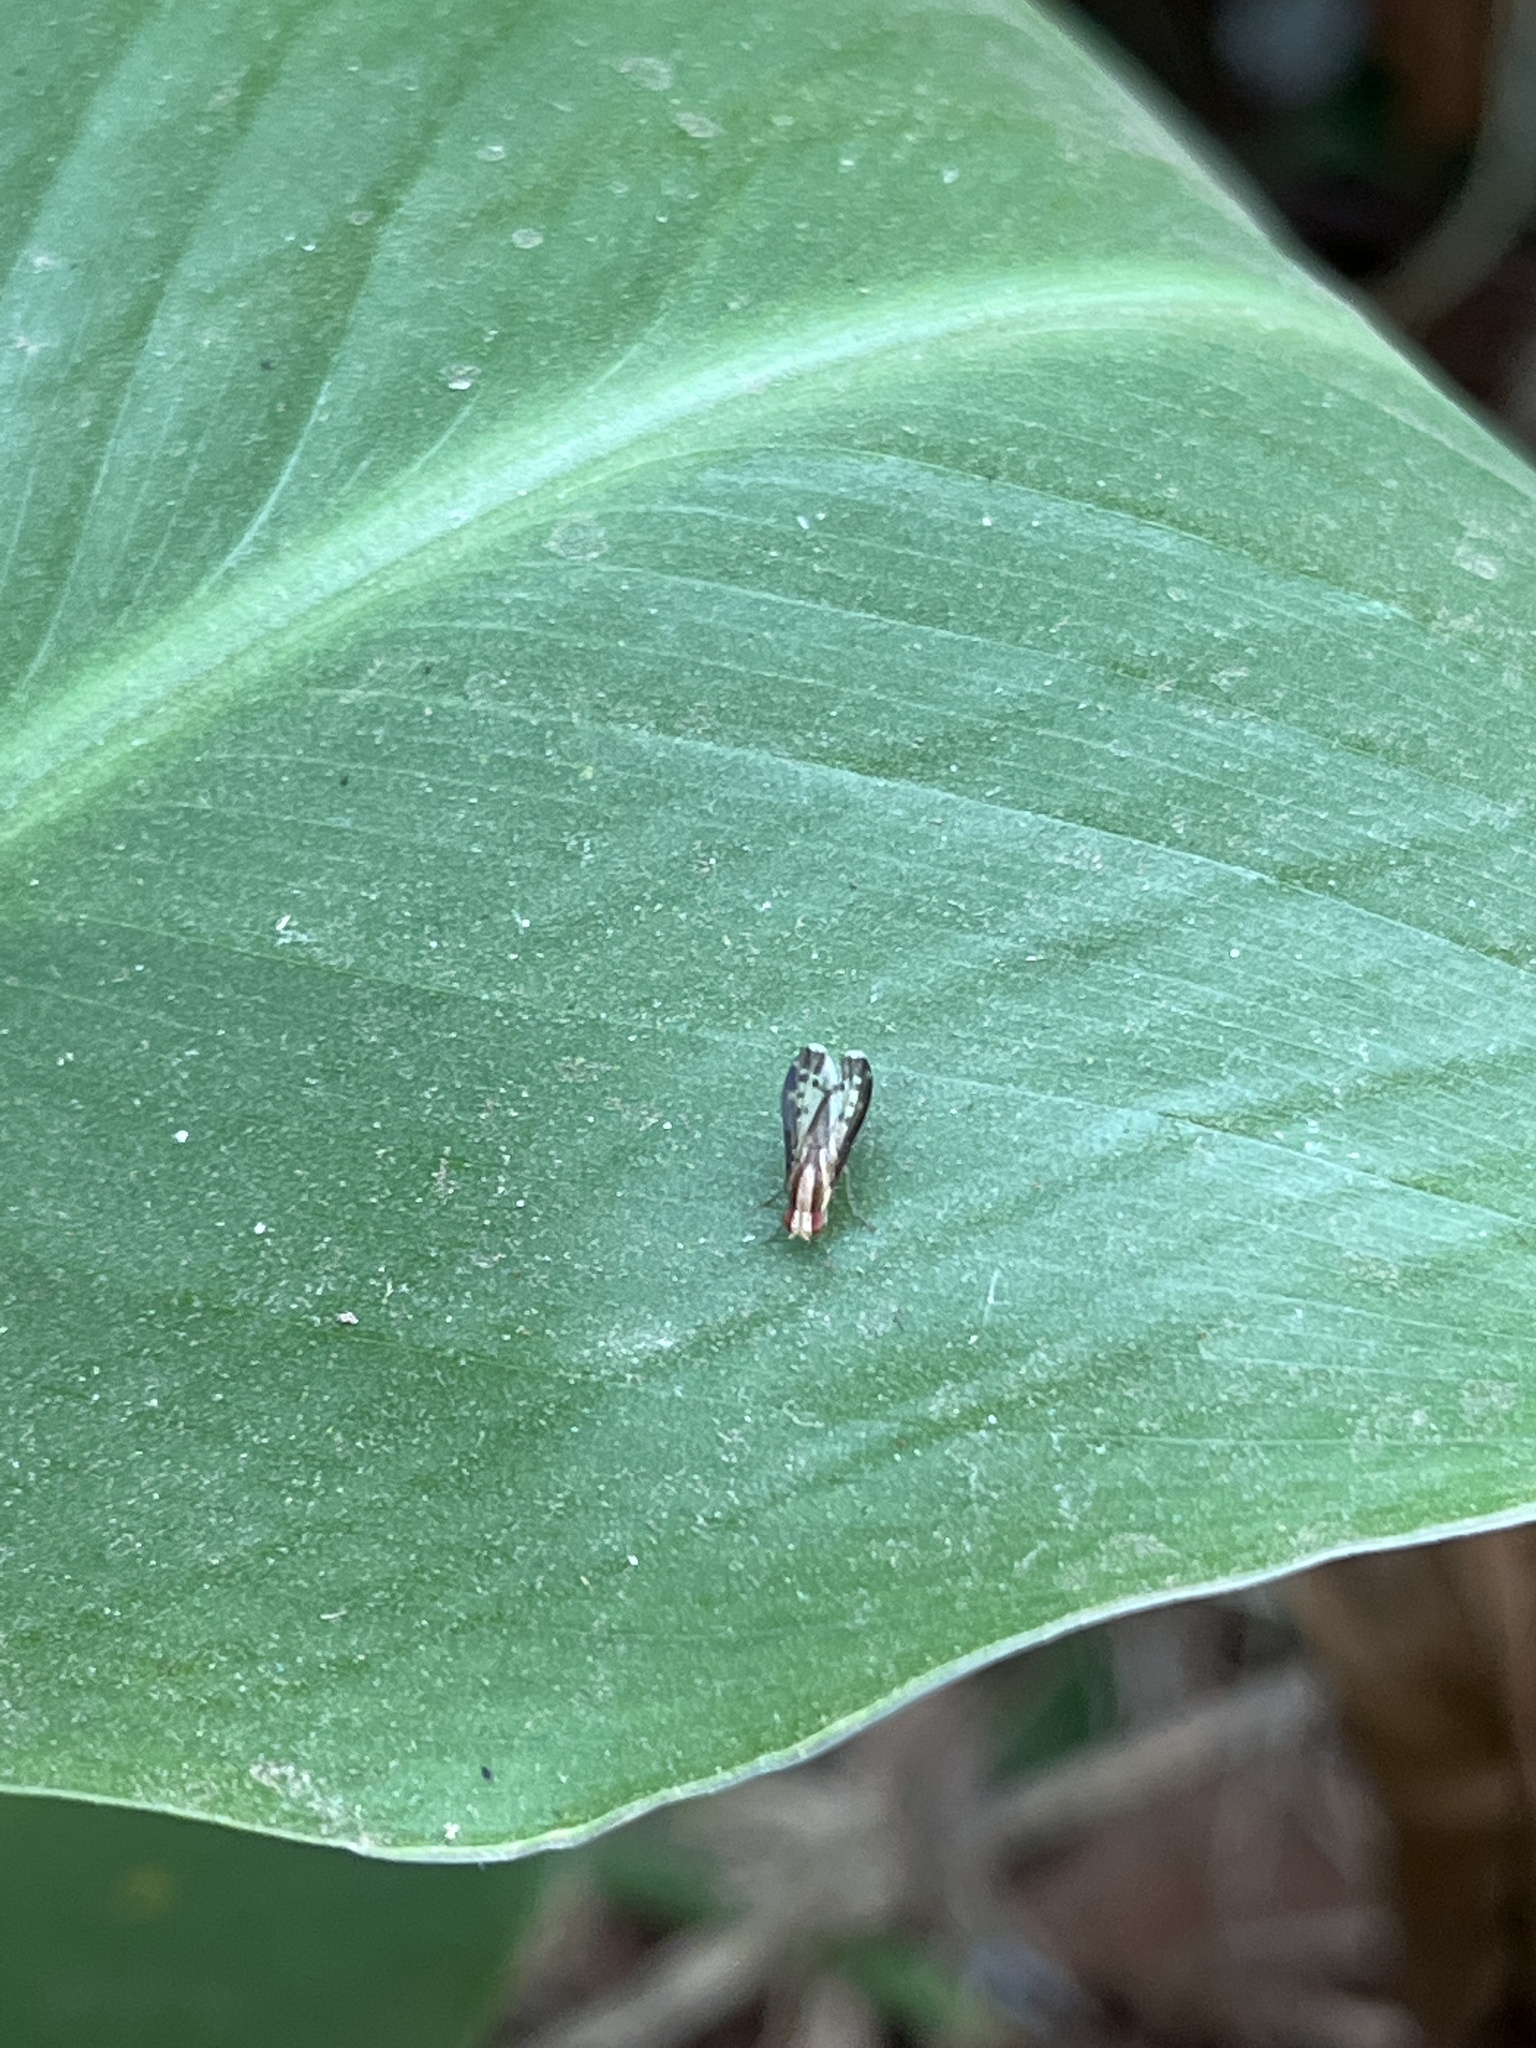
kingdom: Animalia
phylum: Arthropoda
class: Insecta
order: Diptera
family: Lauxaniidae
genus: Homoneura
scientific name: Homoneura terminalis
